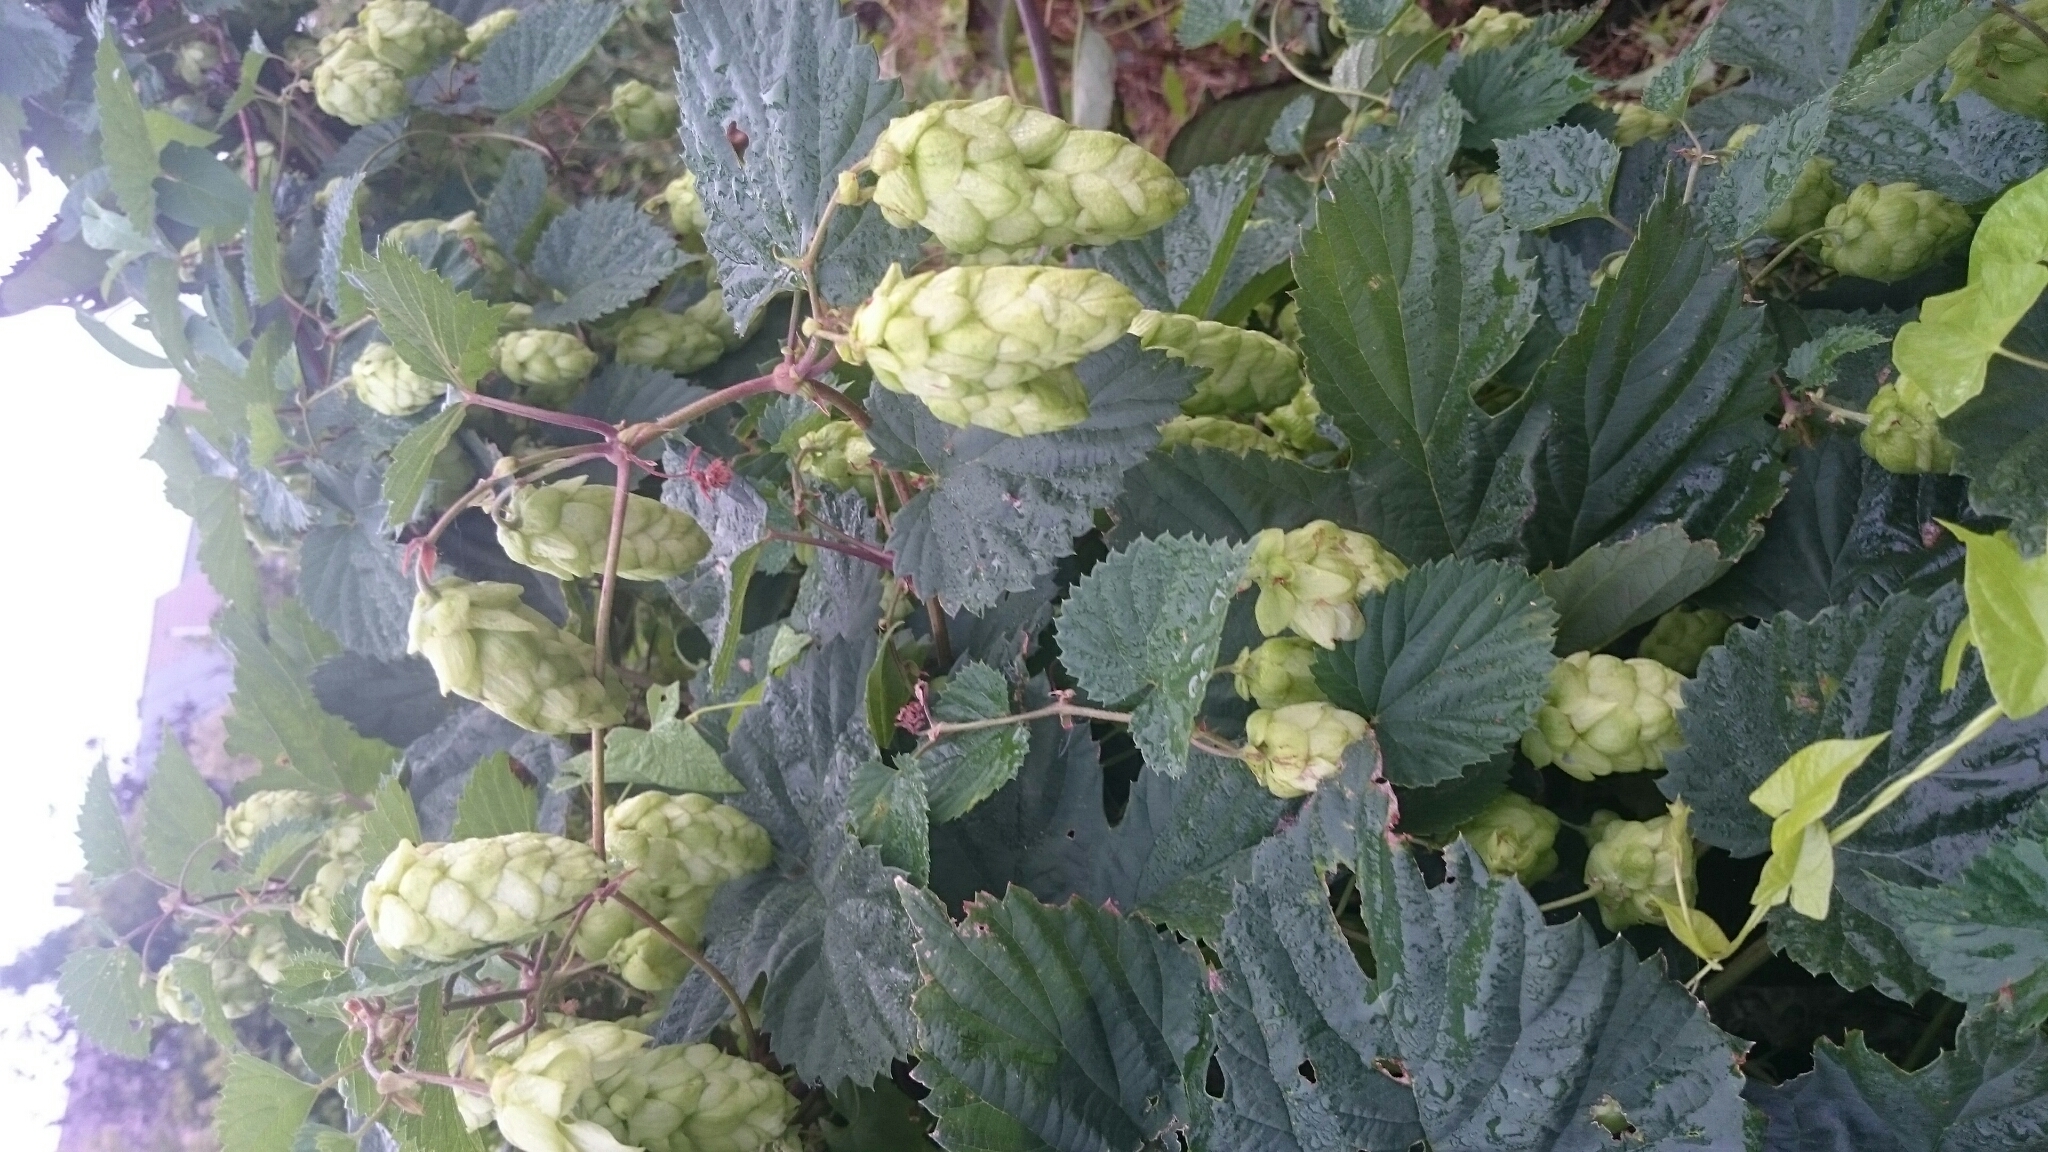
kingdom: Plantae
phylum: Tracheophyta
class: Magnoliopsida
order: Rosales
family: Cannabaceae
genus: Humulus
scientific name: Humulus lupulus
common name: Hop
